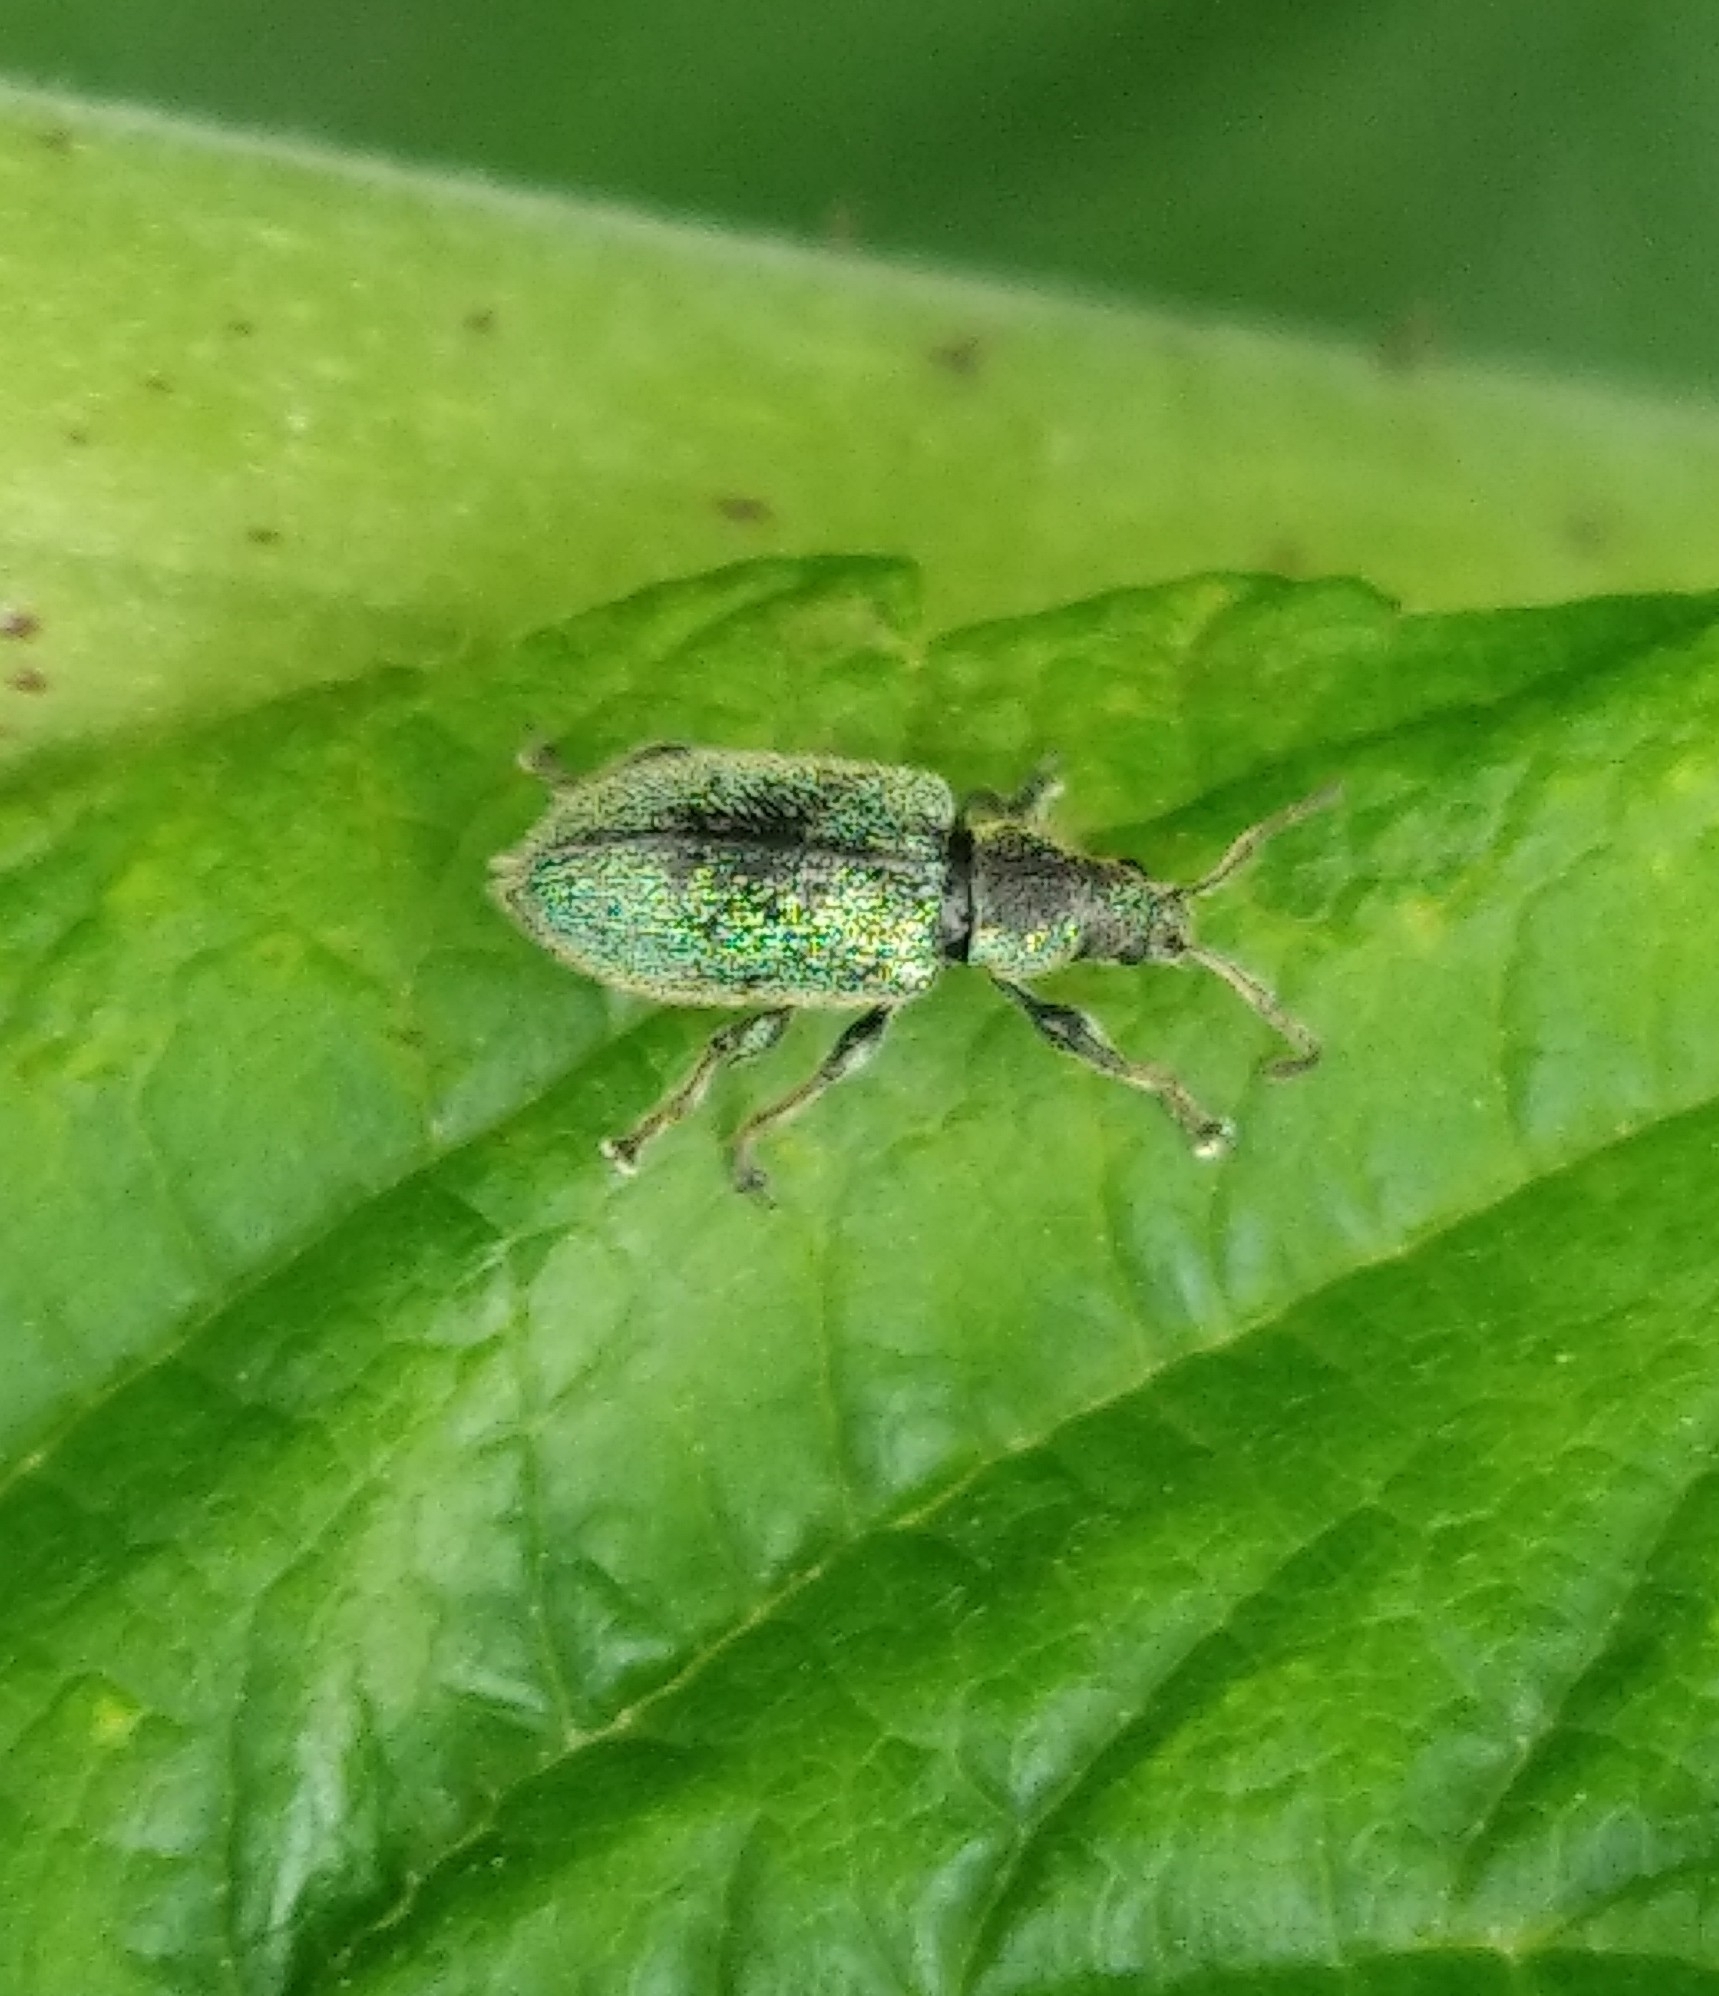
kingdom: Animalia
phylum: Arthropoda
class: Insecta
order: Coleoptera
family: Curculionidae
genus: Phyllobius
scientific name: Phyllobius betulinus
